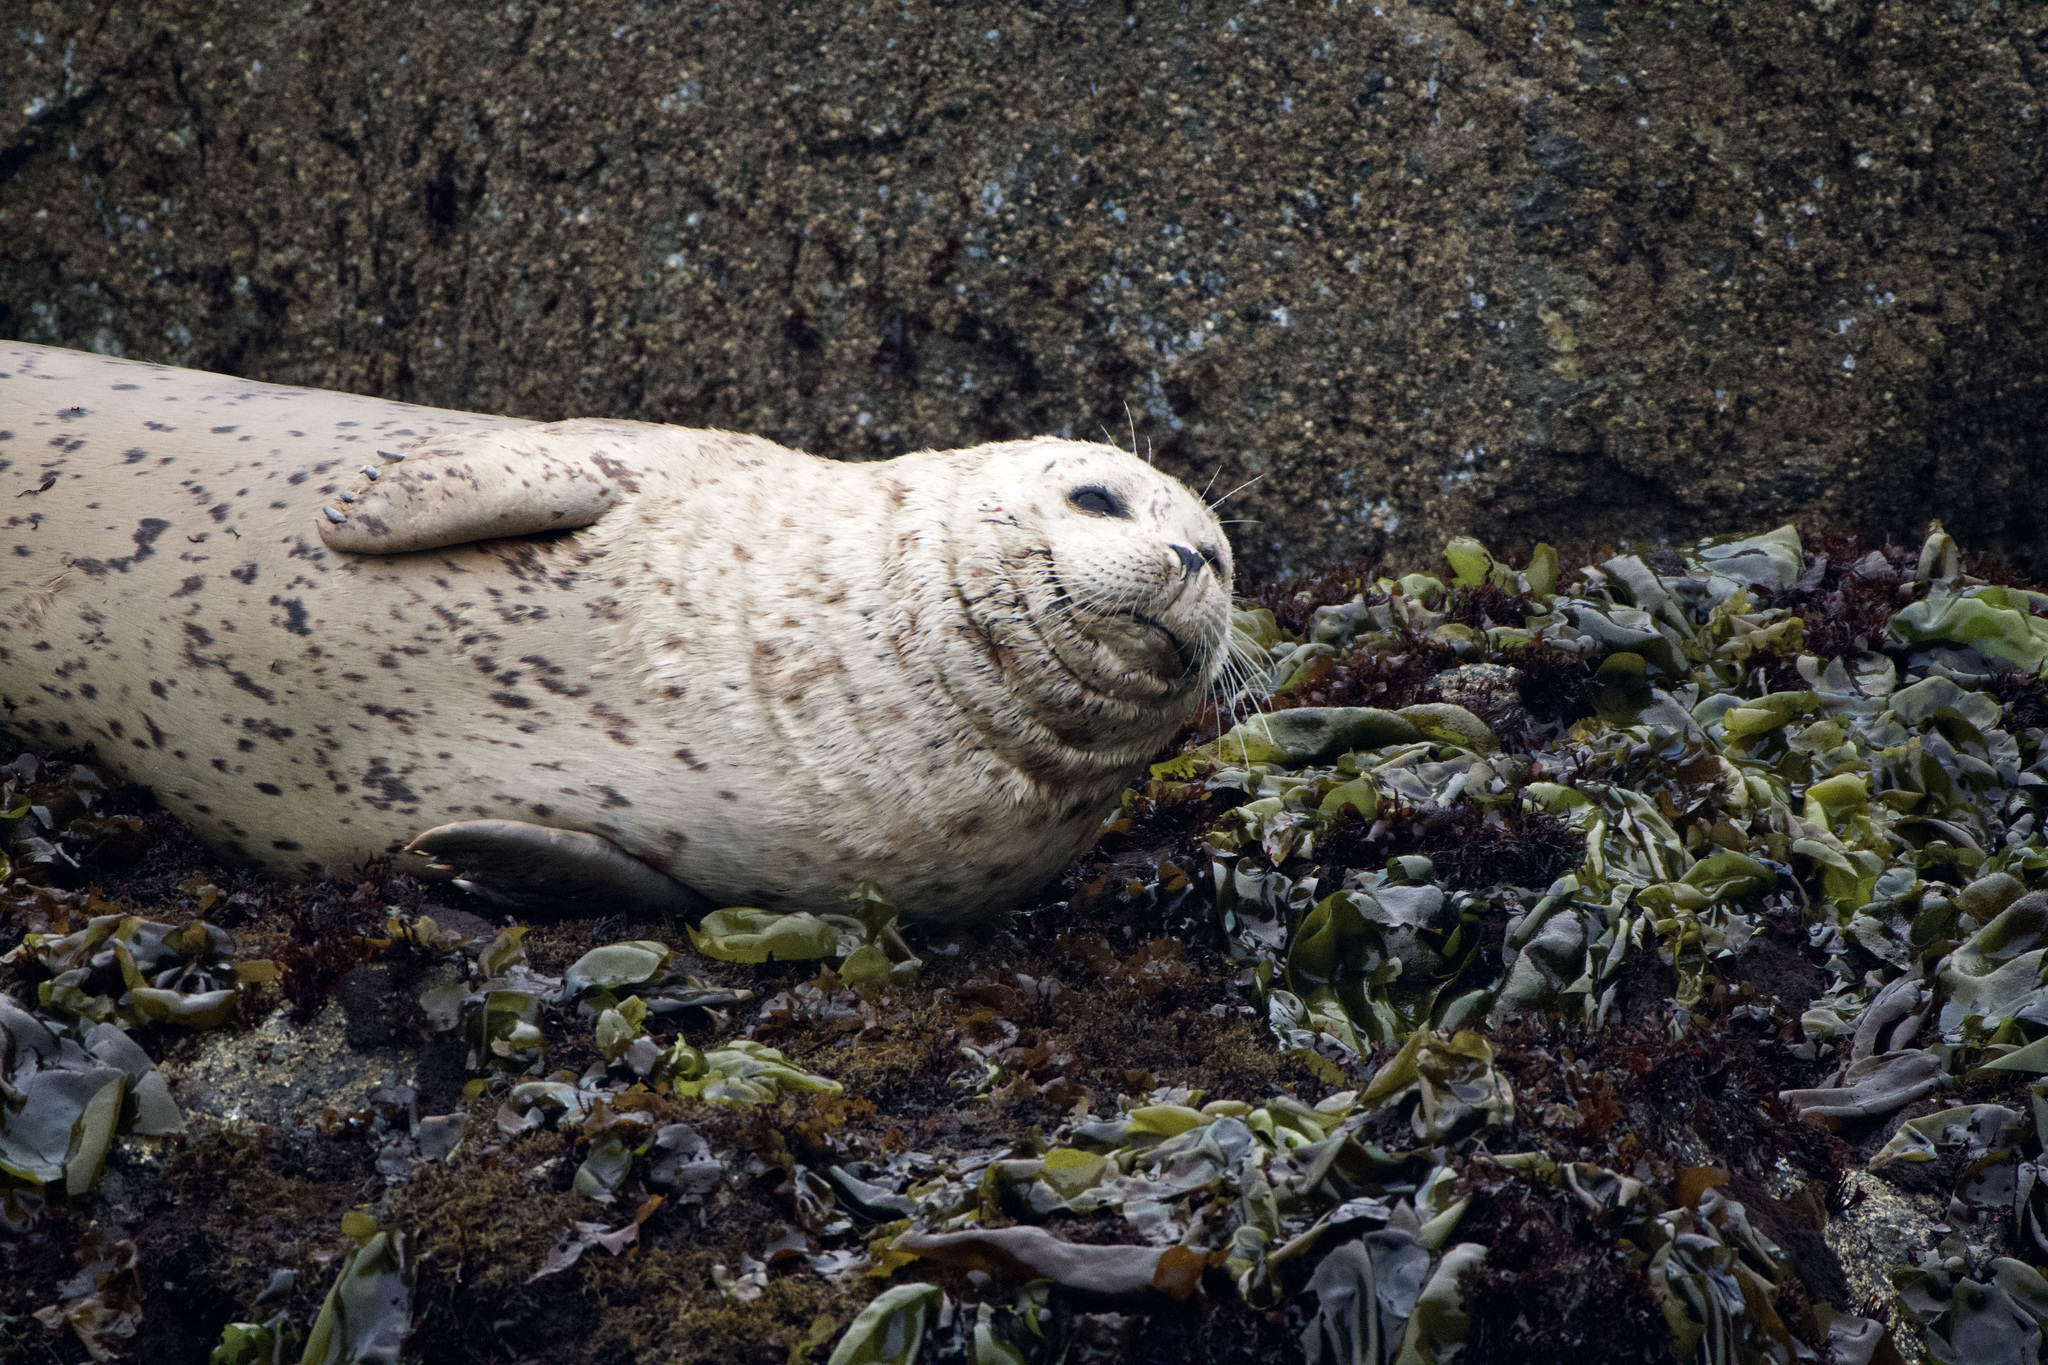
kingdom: Animalia
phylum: Chordata
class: Mammalia
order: Carnivora
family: Phocidae
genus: Phoca
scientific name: Phoca vitulina
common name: Harbor seal
